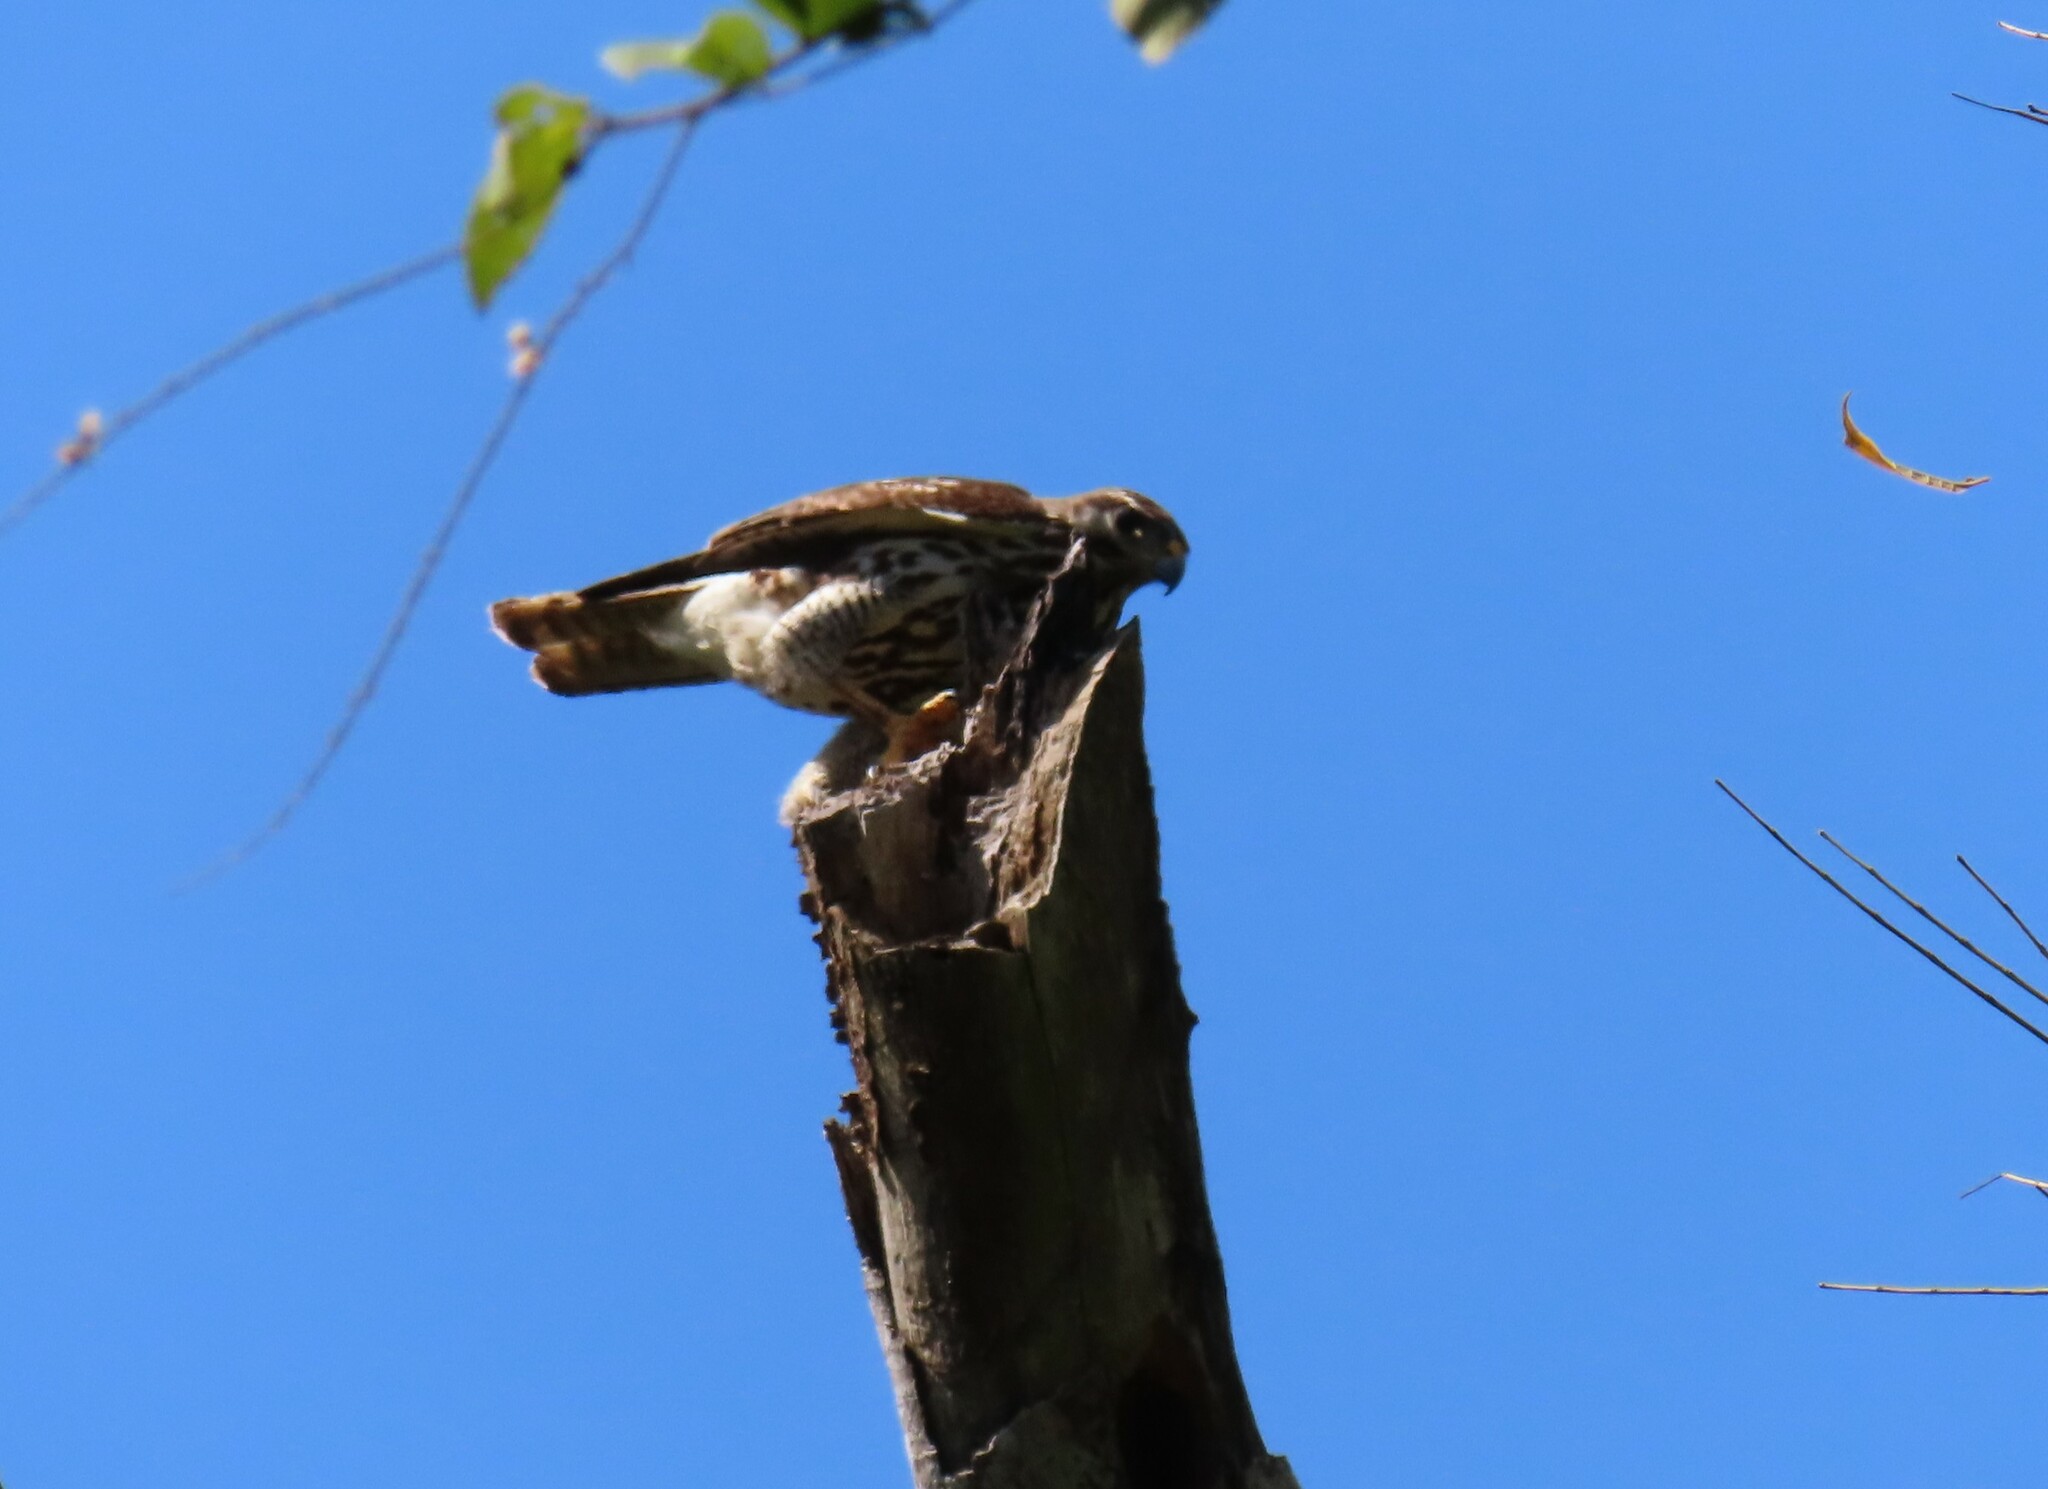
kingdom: Animalia
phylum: Chordata
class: Aves
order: Accipitriformes
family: Accipitridae
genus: Buteo
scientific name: Buteo nitidus
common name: Grey-lined hawk
